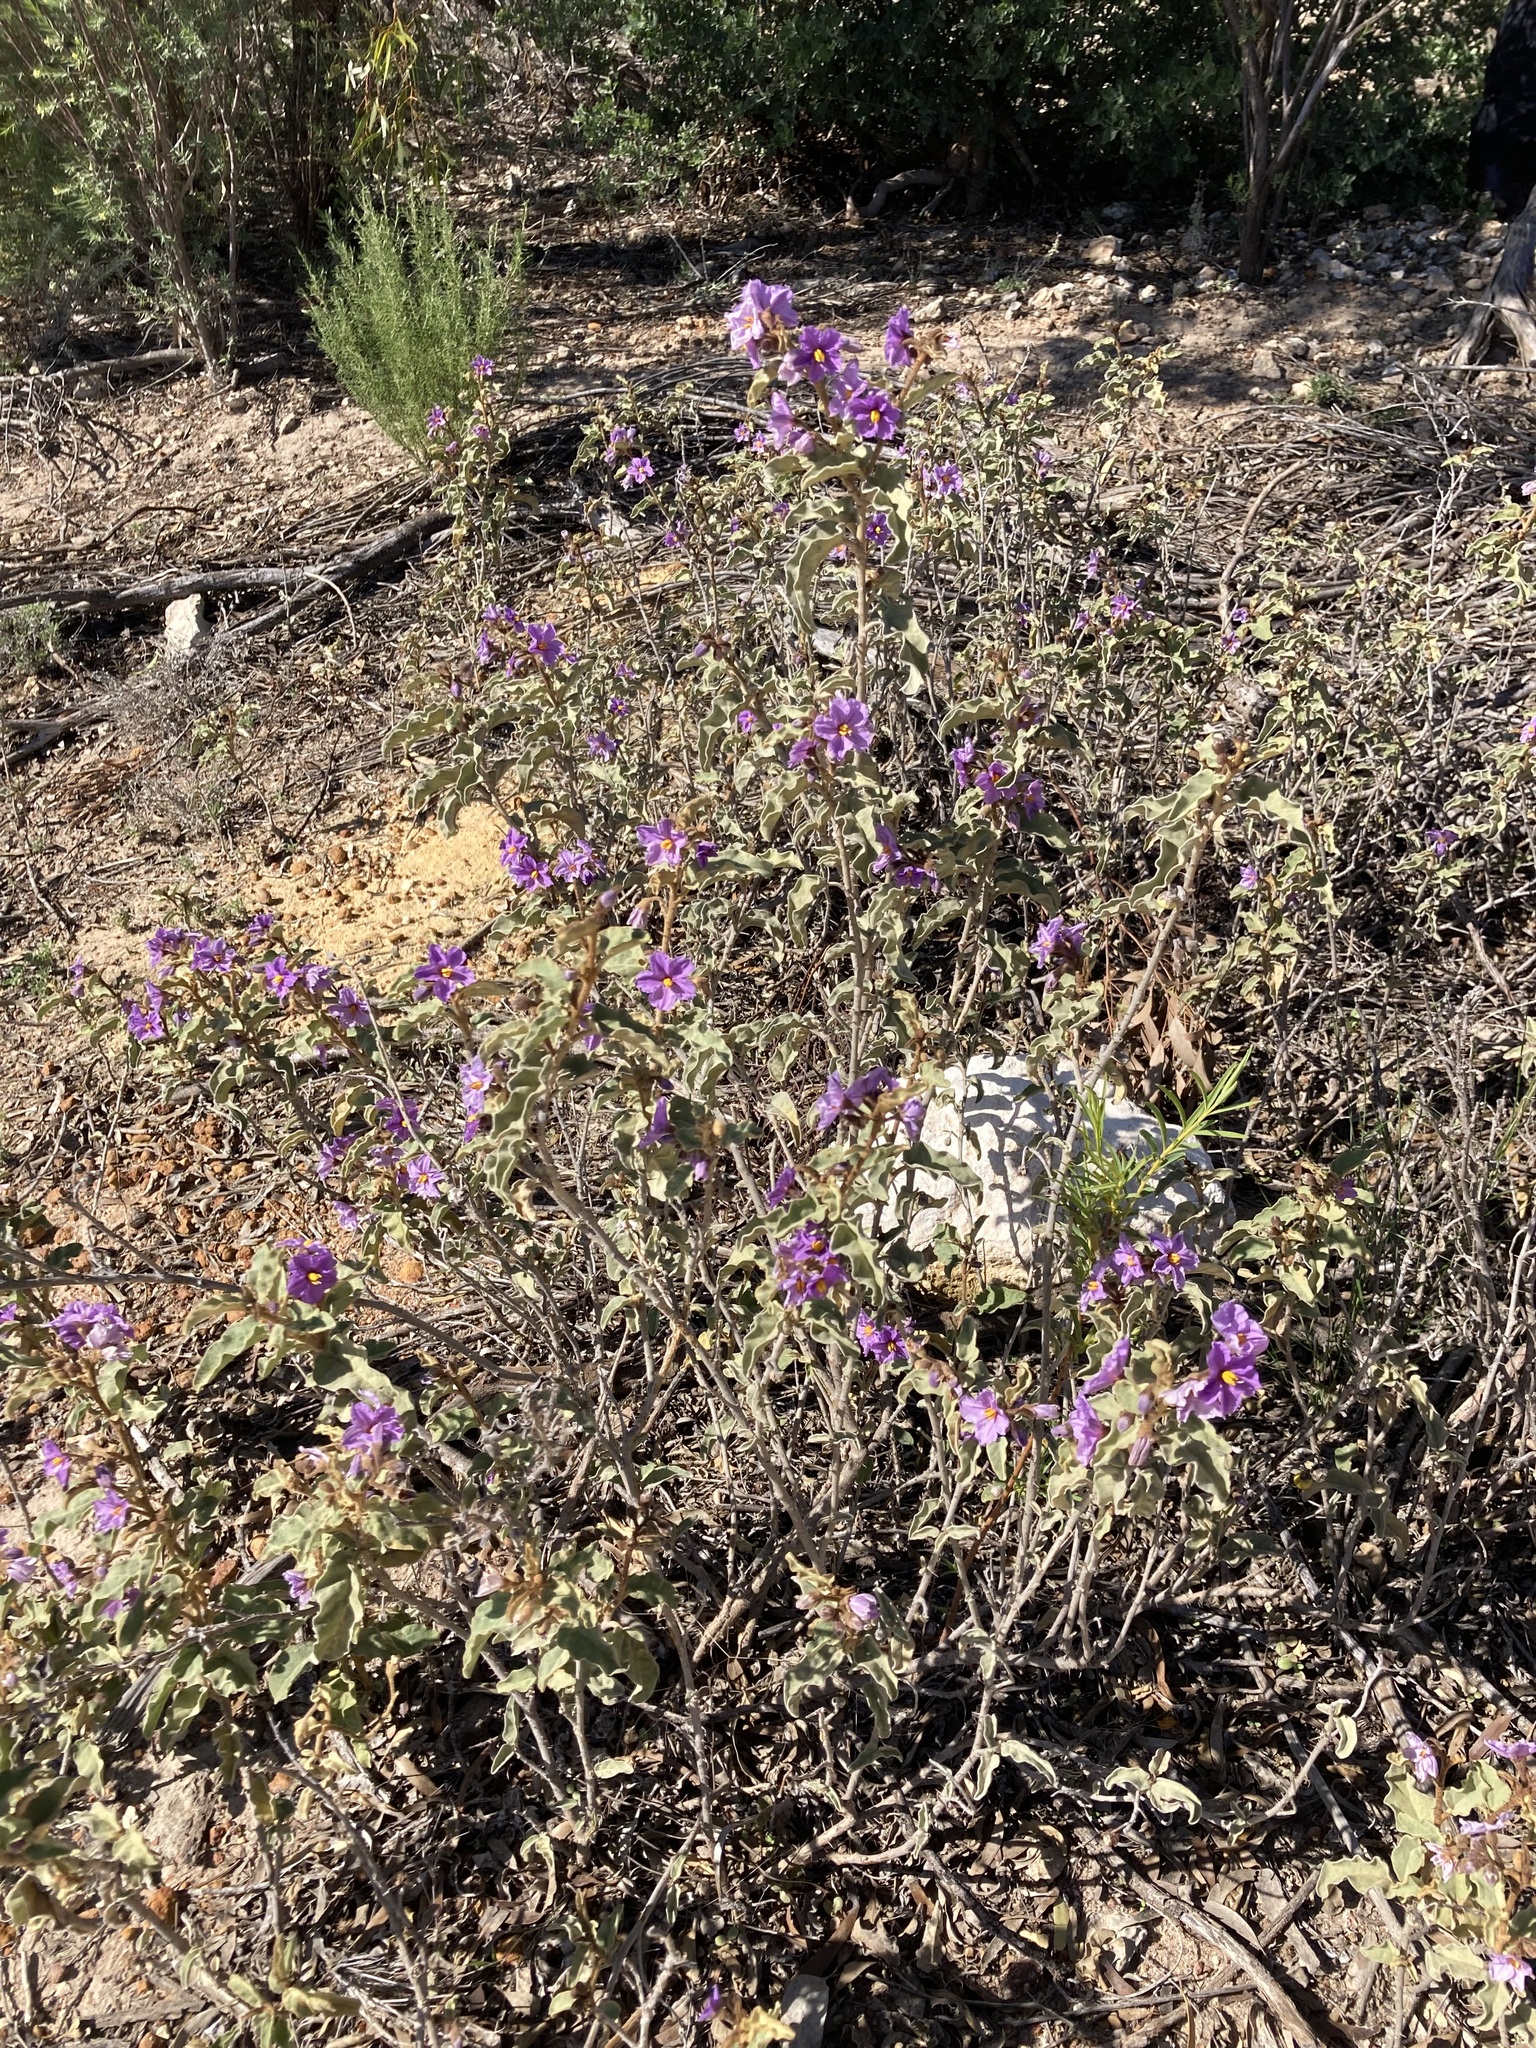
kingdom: Plantae
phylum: Tracheophyta
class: Magnoliopsida
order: Solanales
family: Solanaceae
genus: Solanum
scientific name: Solanum oldfieldii
